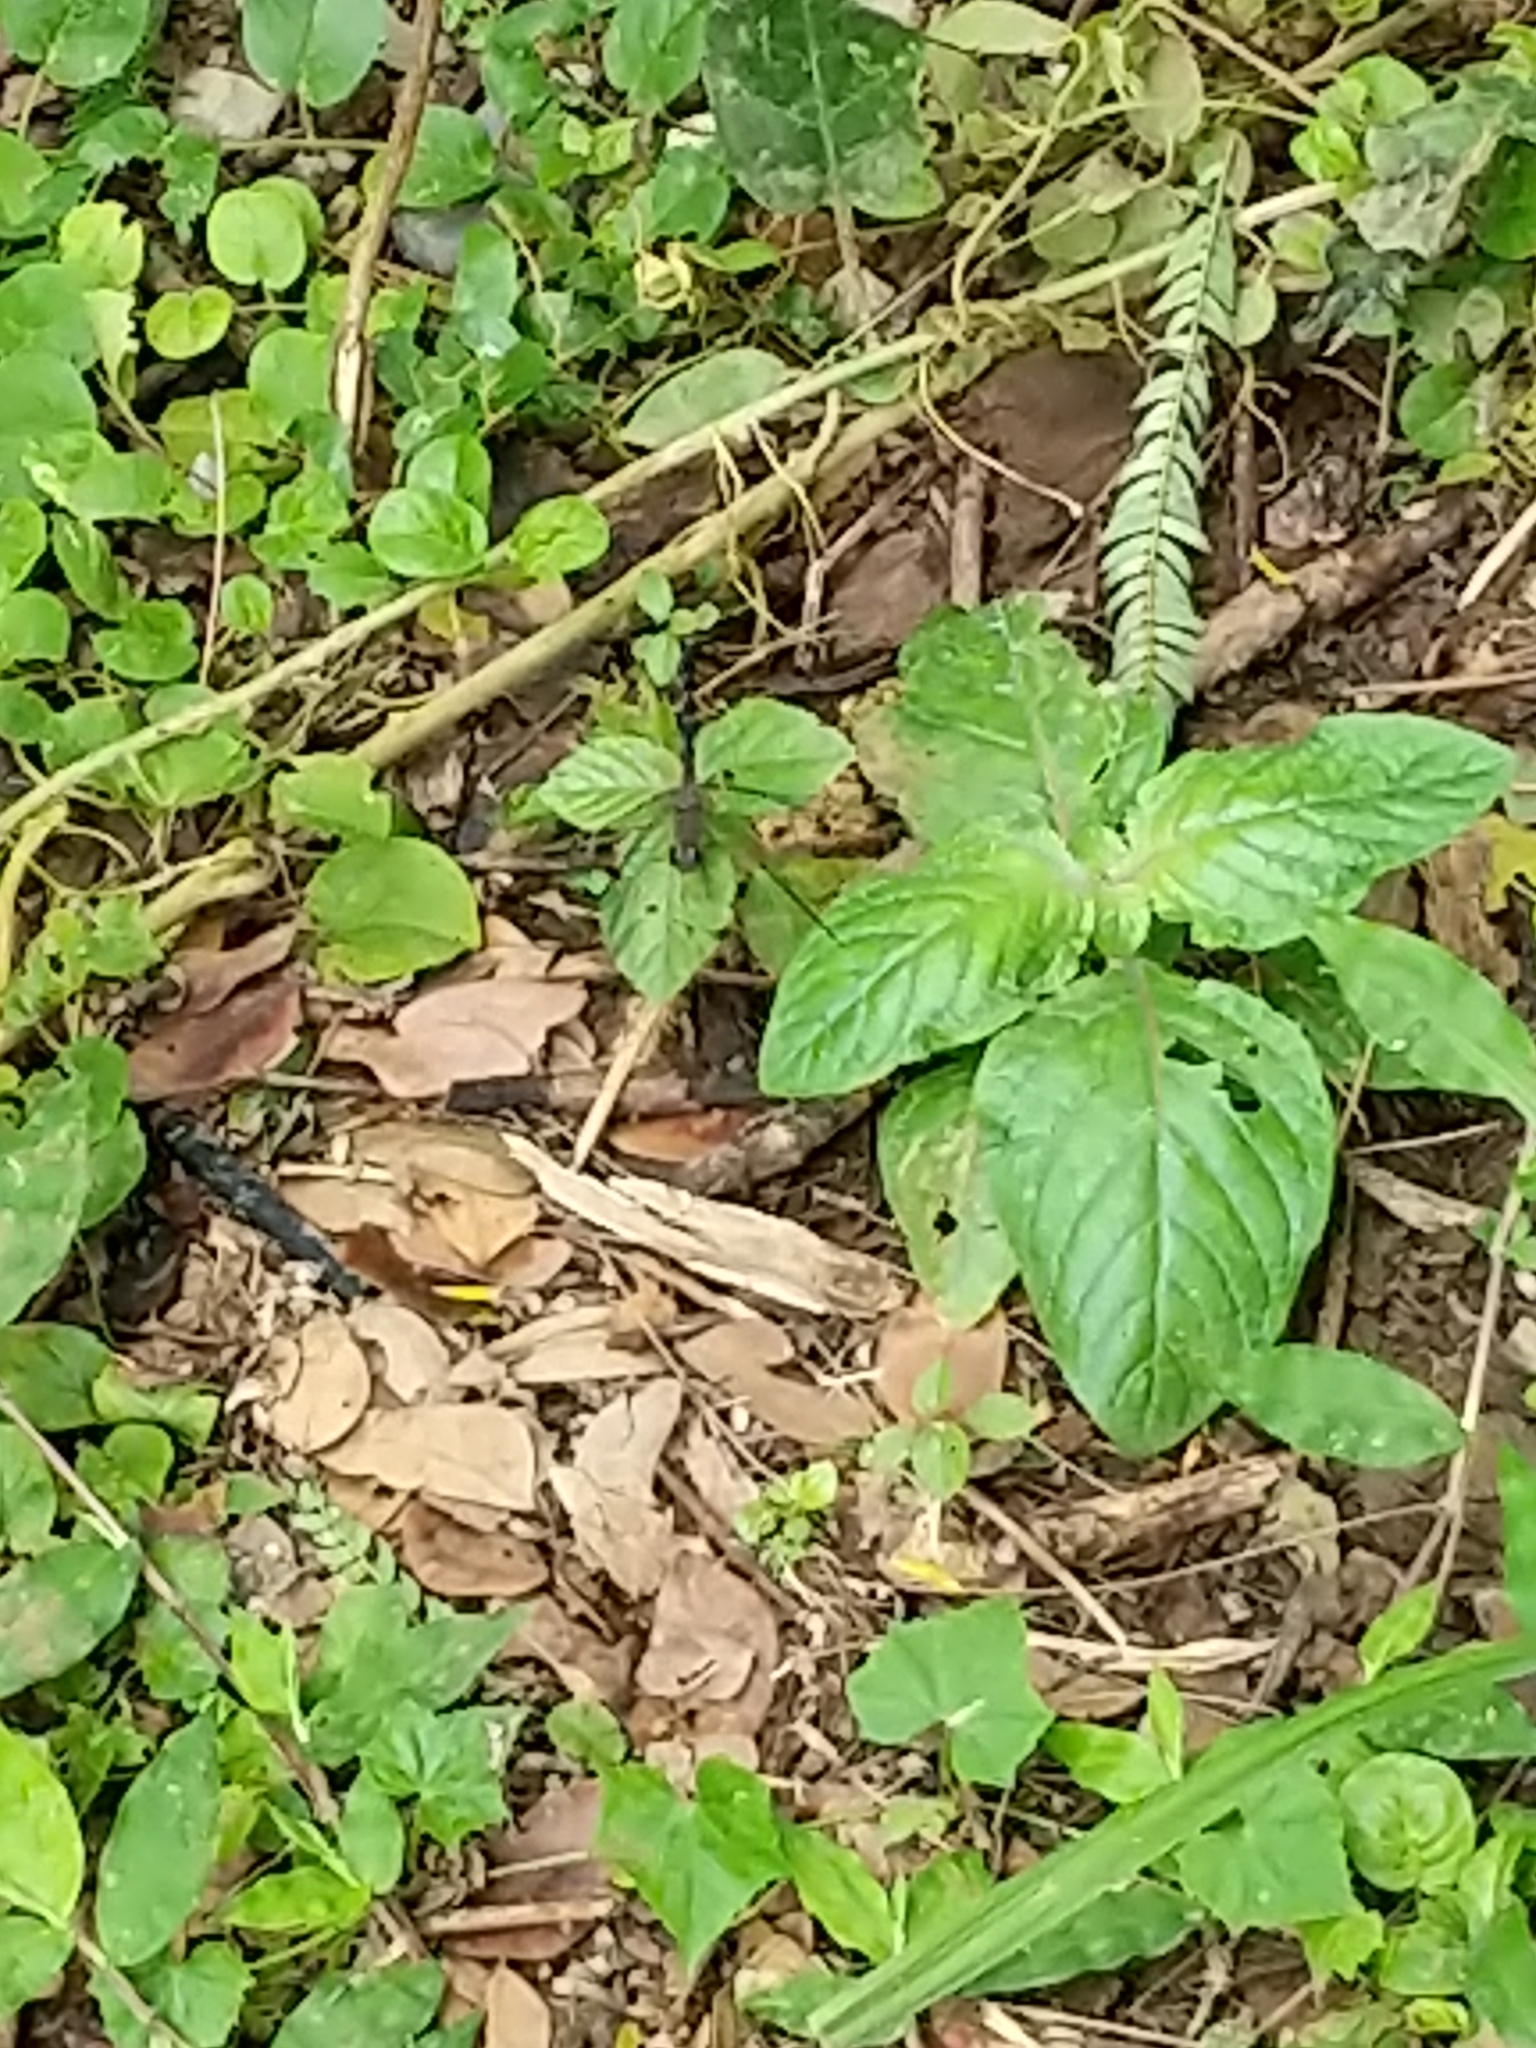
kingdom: Animalia
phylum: Arthropoda
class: Insecta
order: Odonata
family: Libellulidae
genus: Uracis
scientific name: Uracis imbuta
